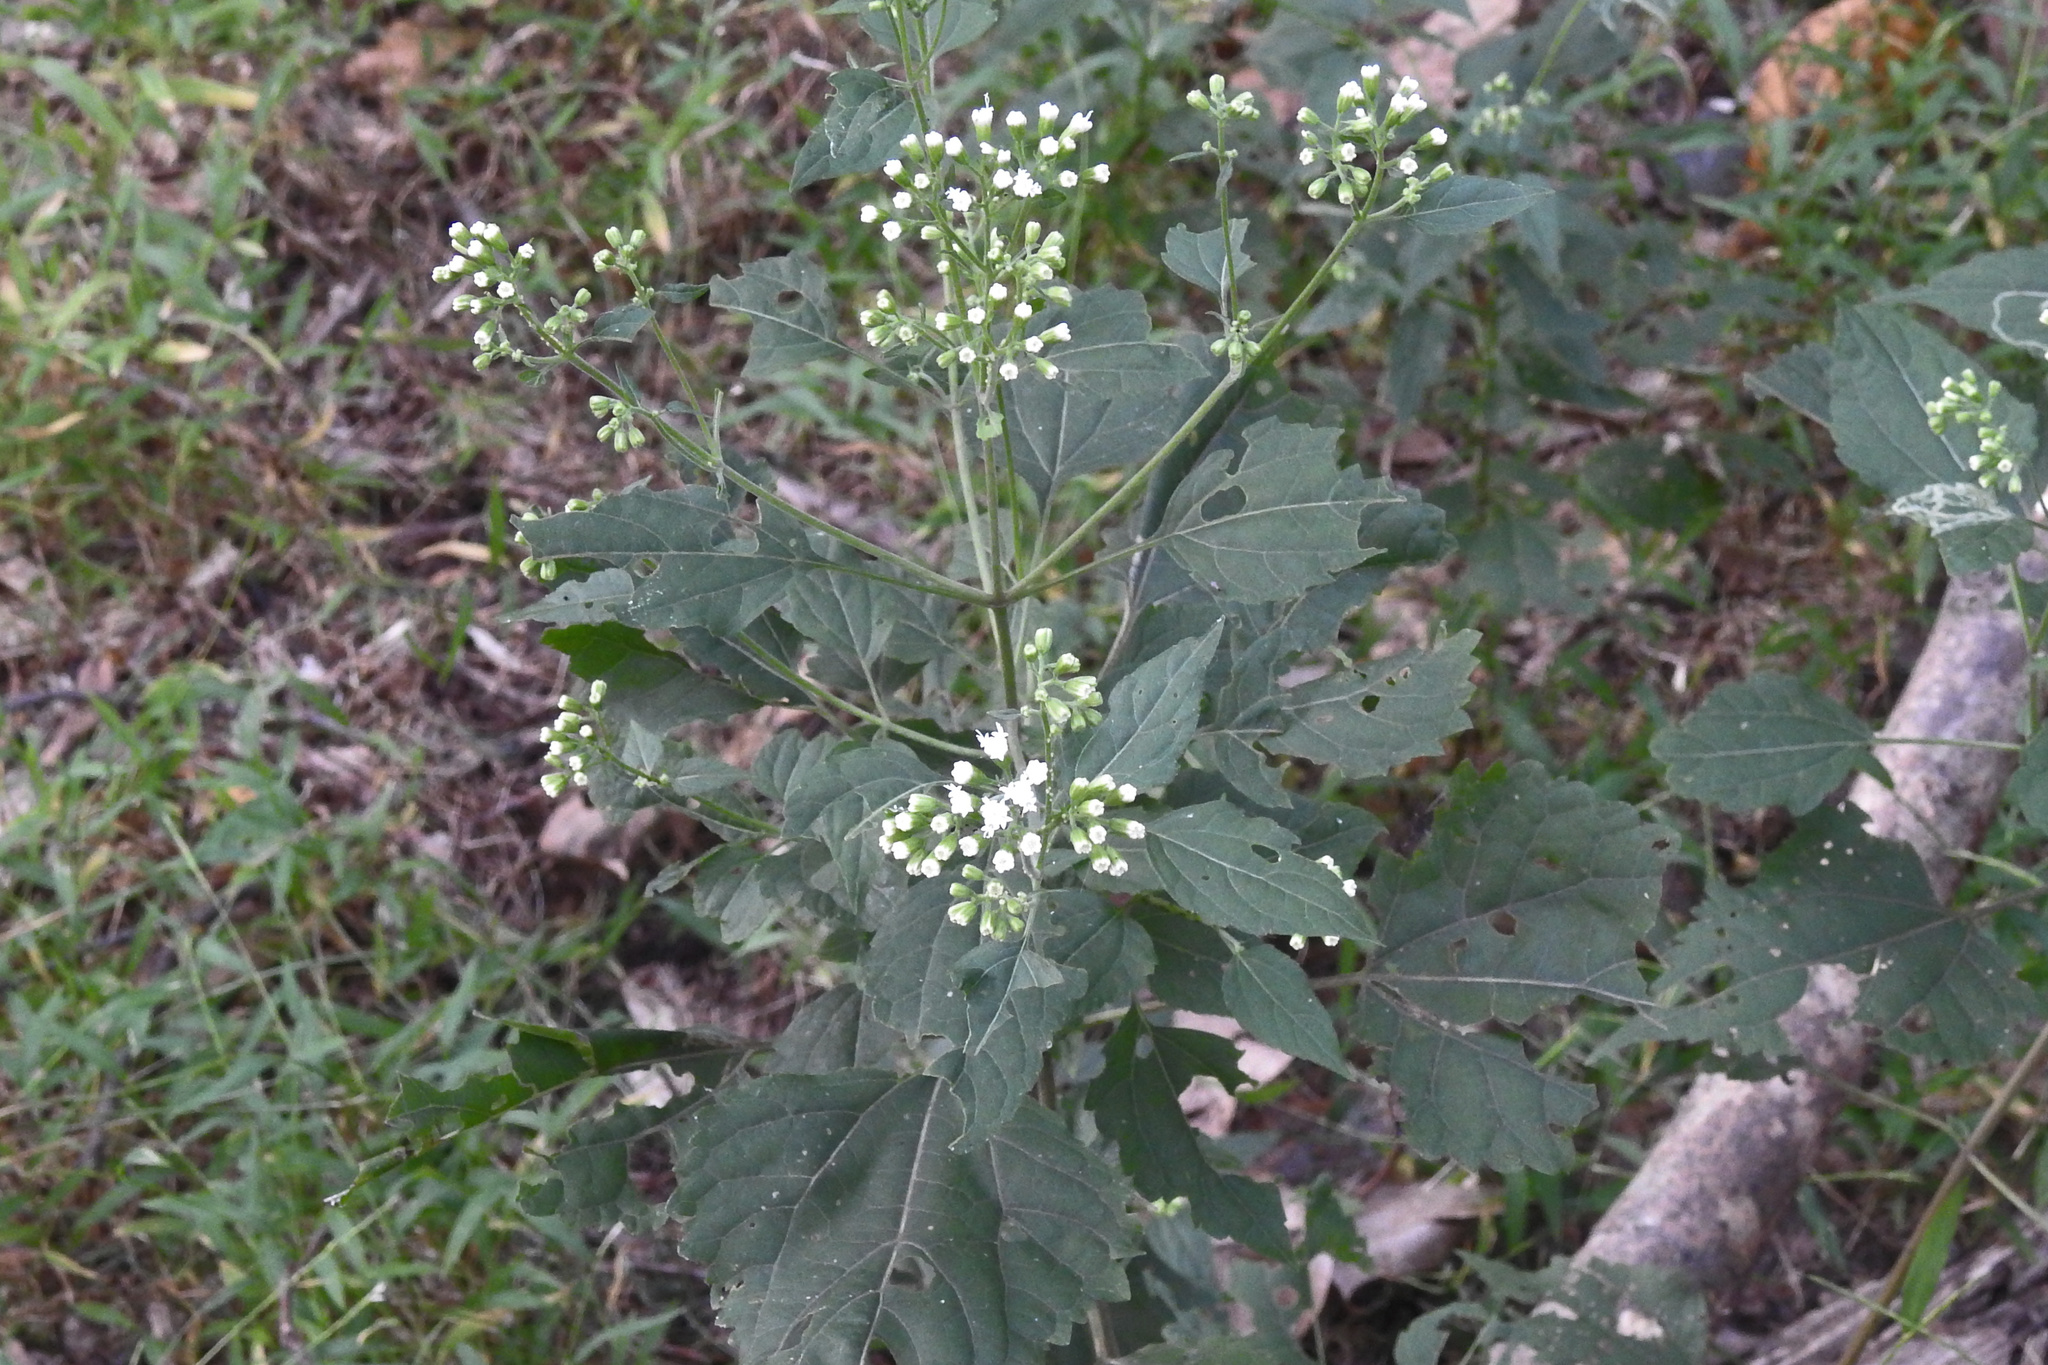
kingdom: Plantae
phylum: Tracheophyta
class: Magnoliopsida
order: Asterales
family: Asteraceae
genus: Ageratina
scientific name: Ageratina altissima
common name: White snakeroot
